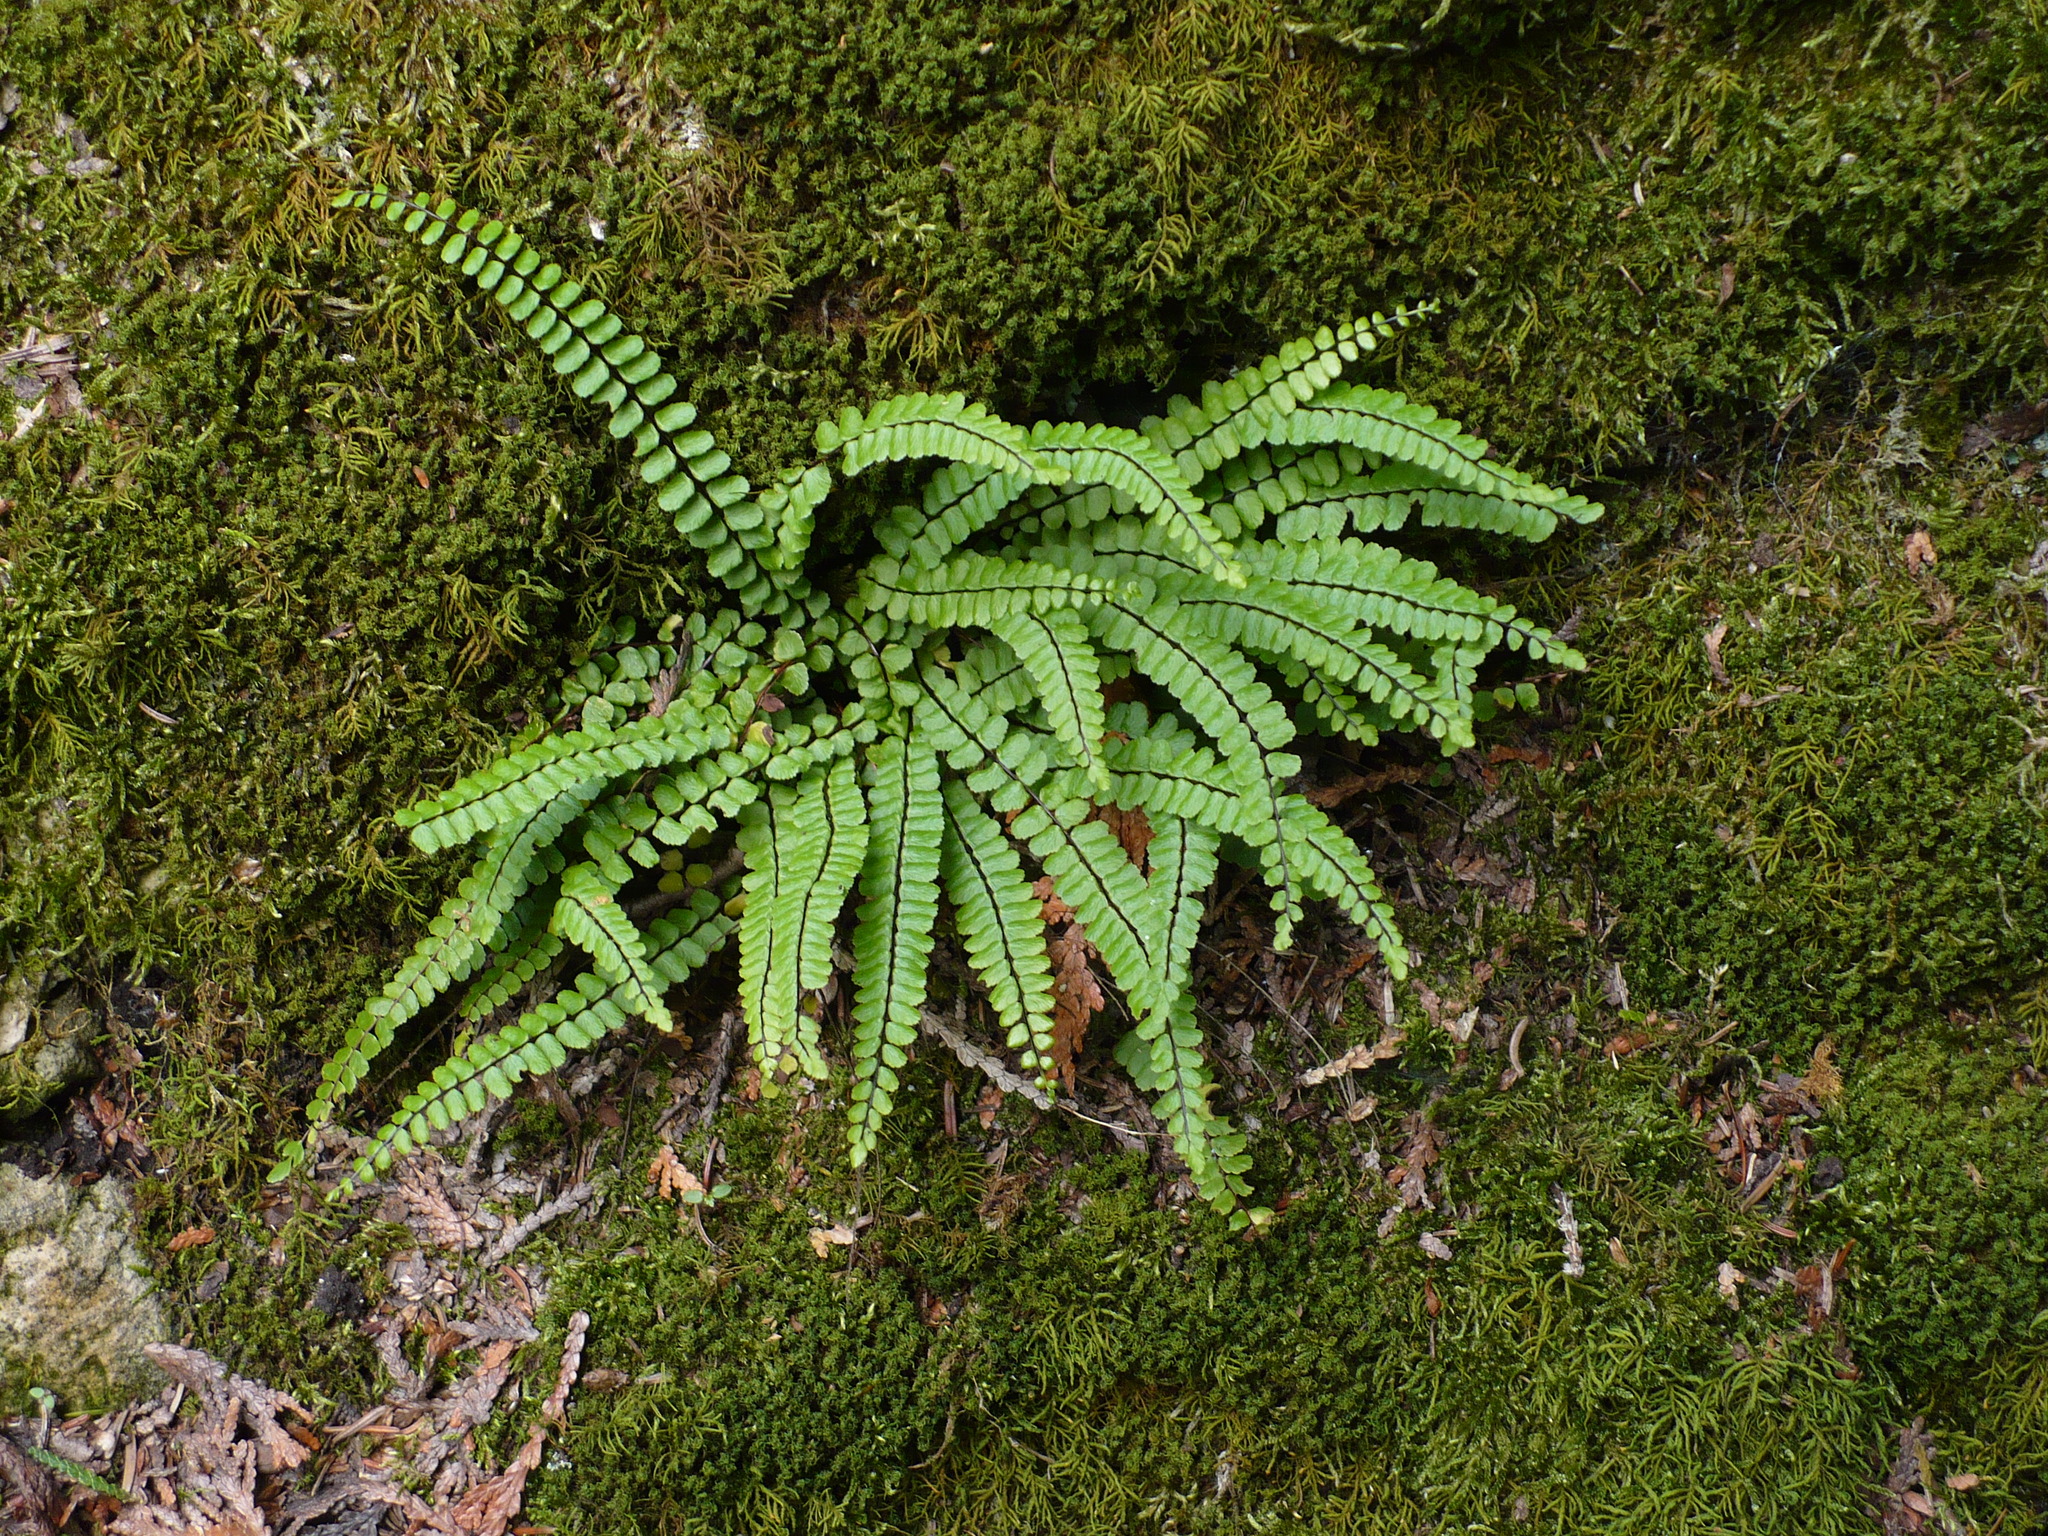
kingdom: Plantae
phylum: Tracheophyta
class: Polypodiopsida
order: Polypodiales
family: Aspleniaceae
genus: Asplenium
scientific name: Asplenium trichomanes
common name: Maidenhair spleenwort
